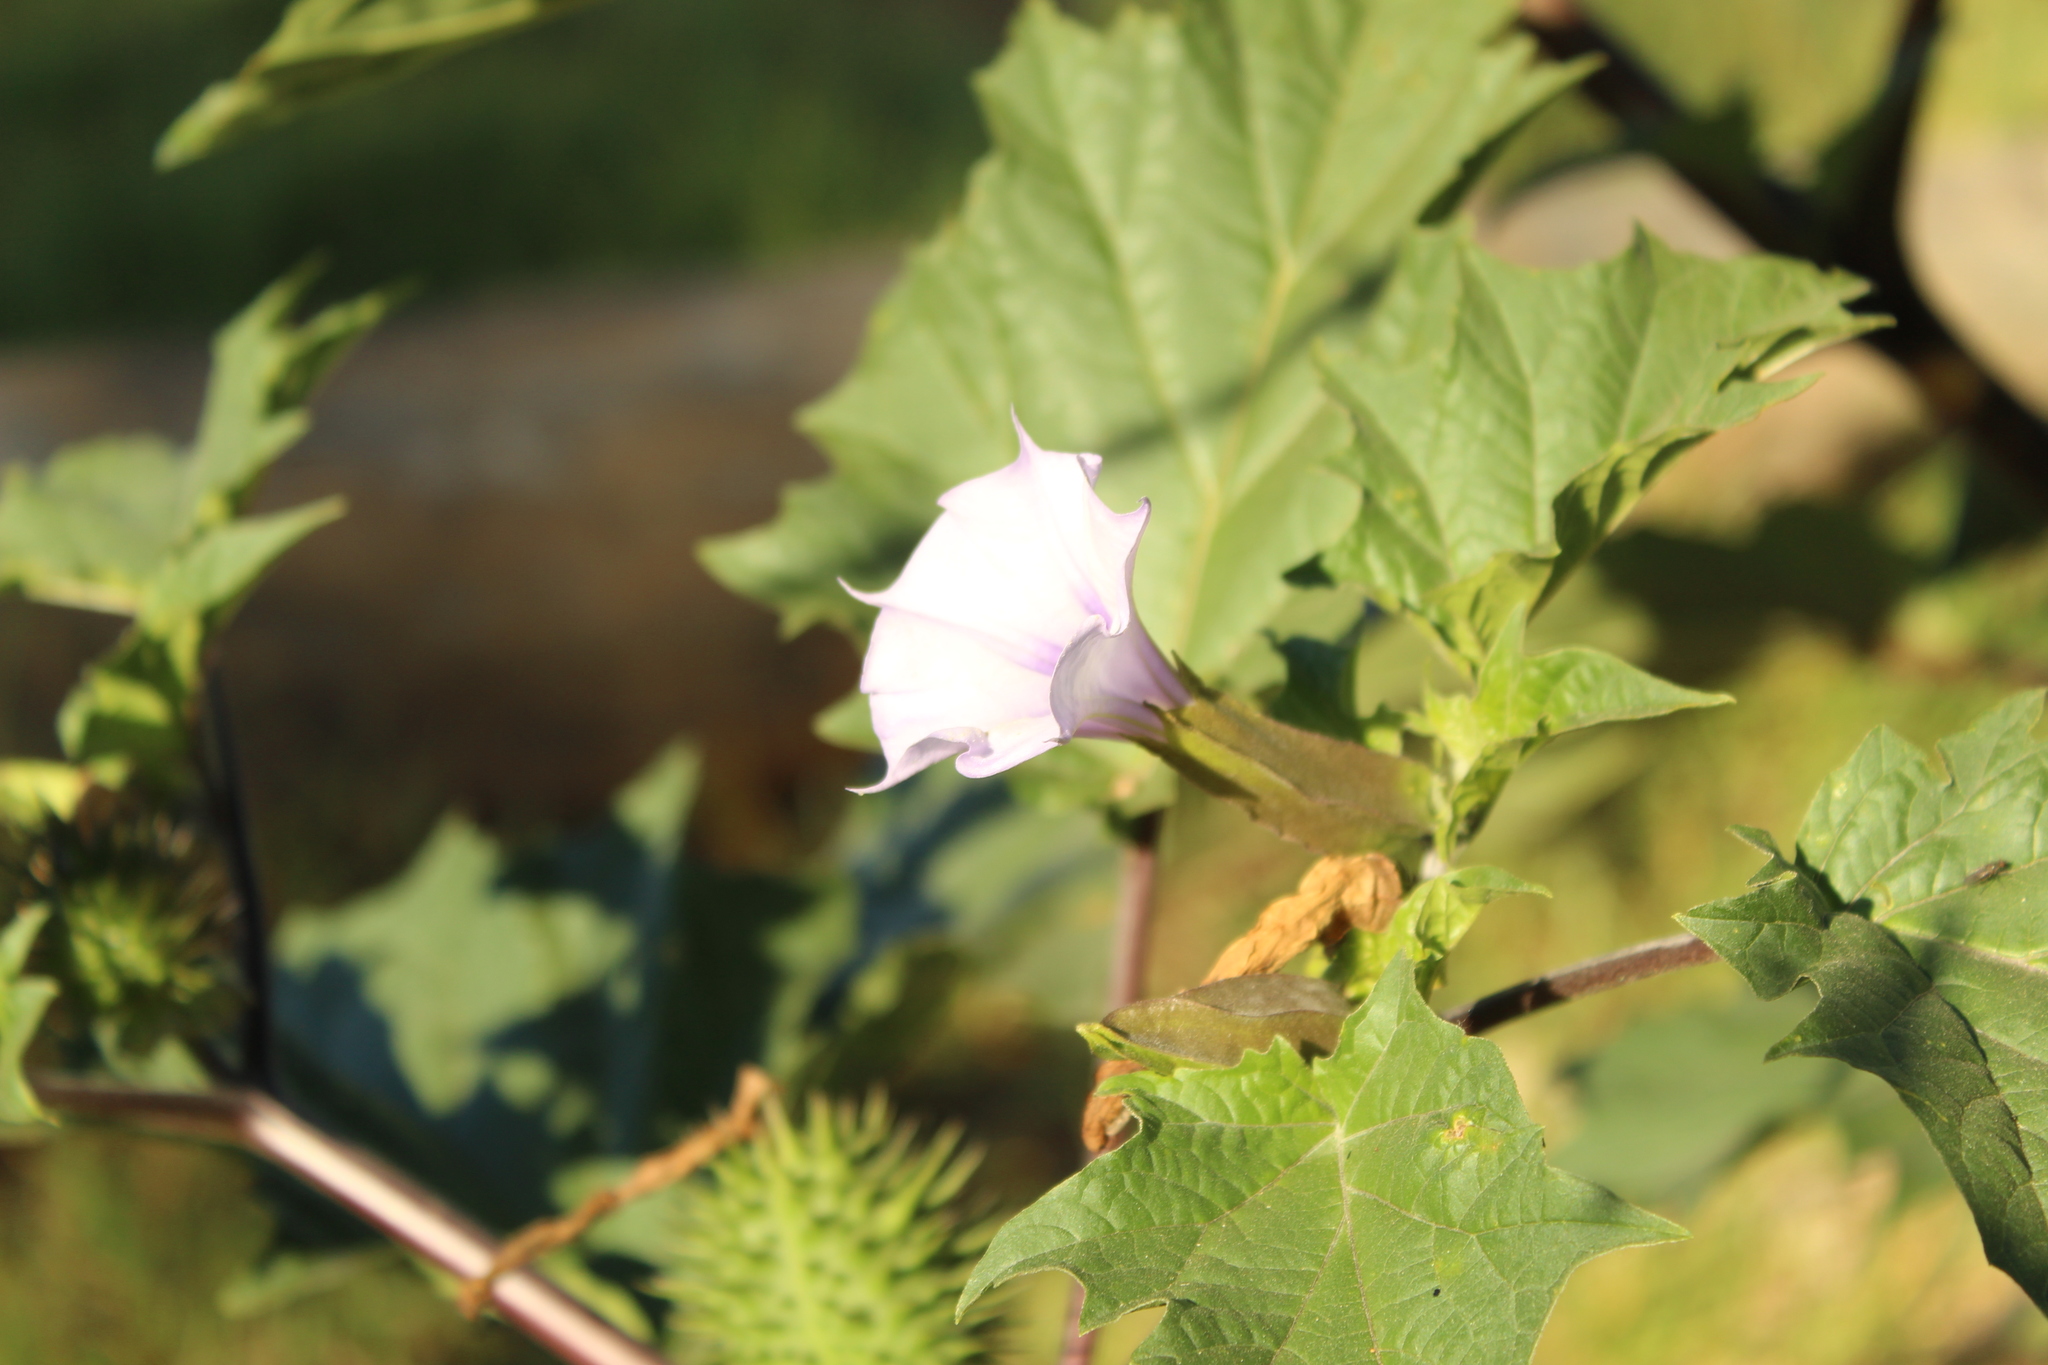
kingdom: Plantae
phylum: Tracheophyta
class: Magnoliopsida
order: Solanales
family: Solanaceae
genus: Datura
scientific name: Datura stramonium
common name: Thorn-apple
